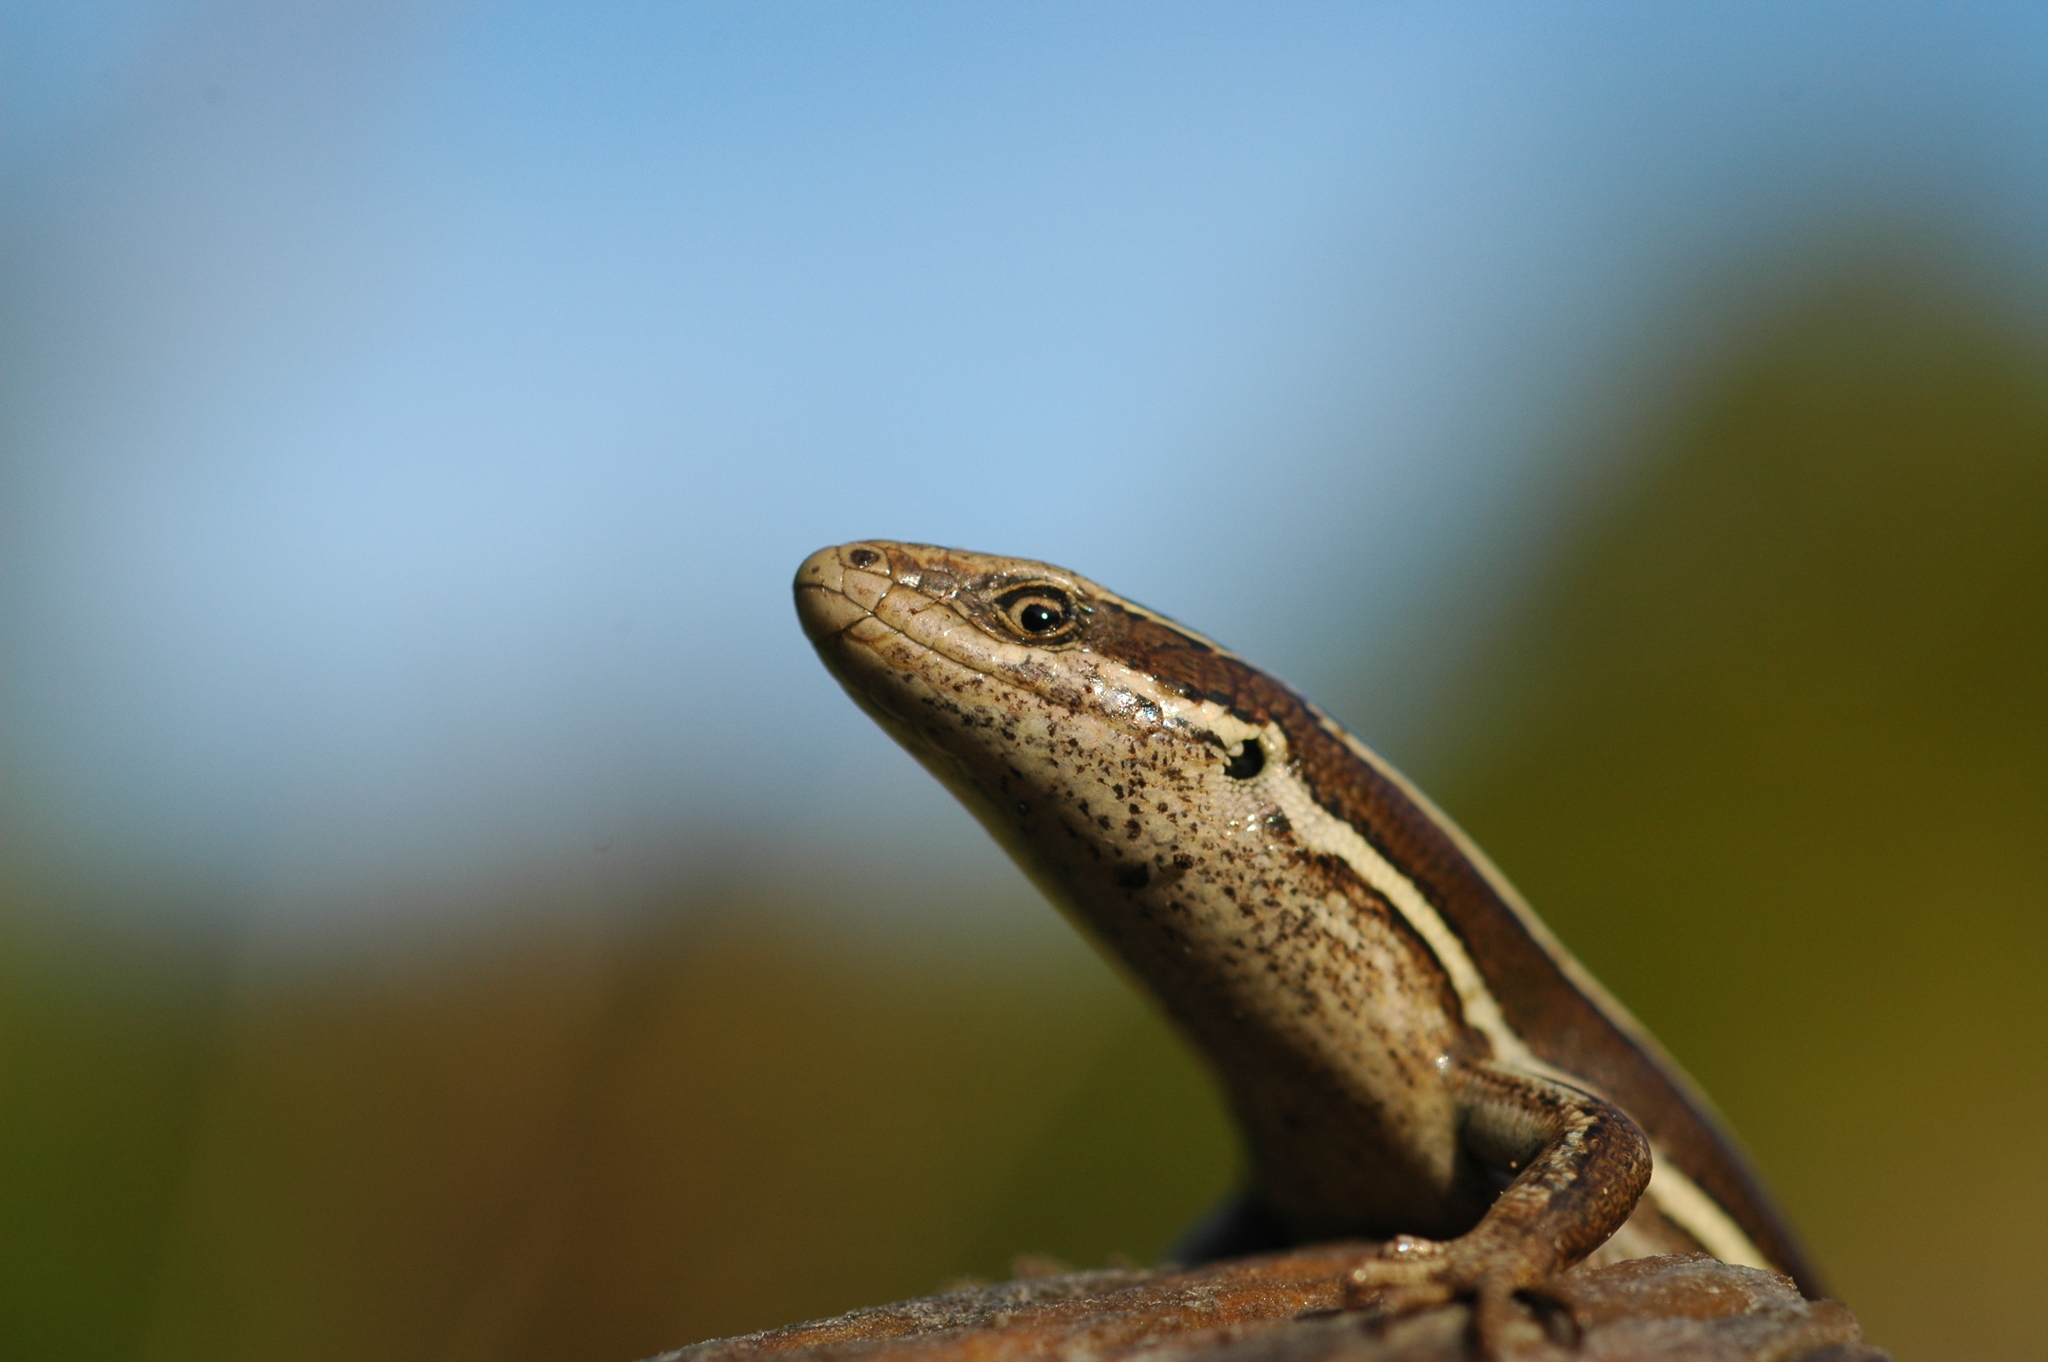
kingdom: Animalia
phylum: Chordata
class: Squamata
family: Scincidae
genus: Oligosoma
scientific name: Oligosoma maccanni
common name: Mccann’s skink
